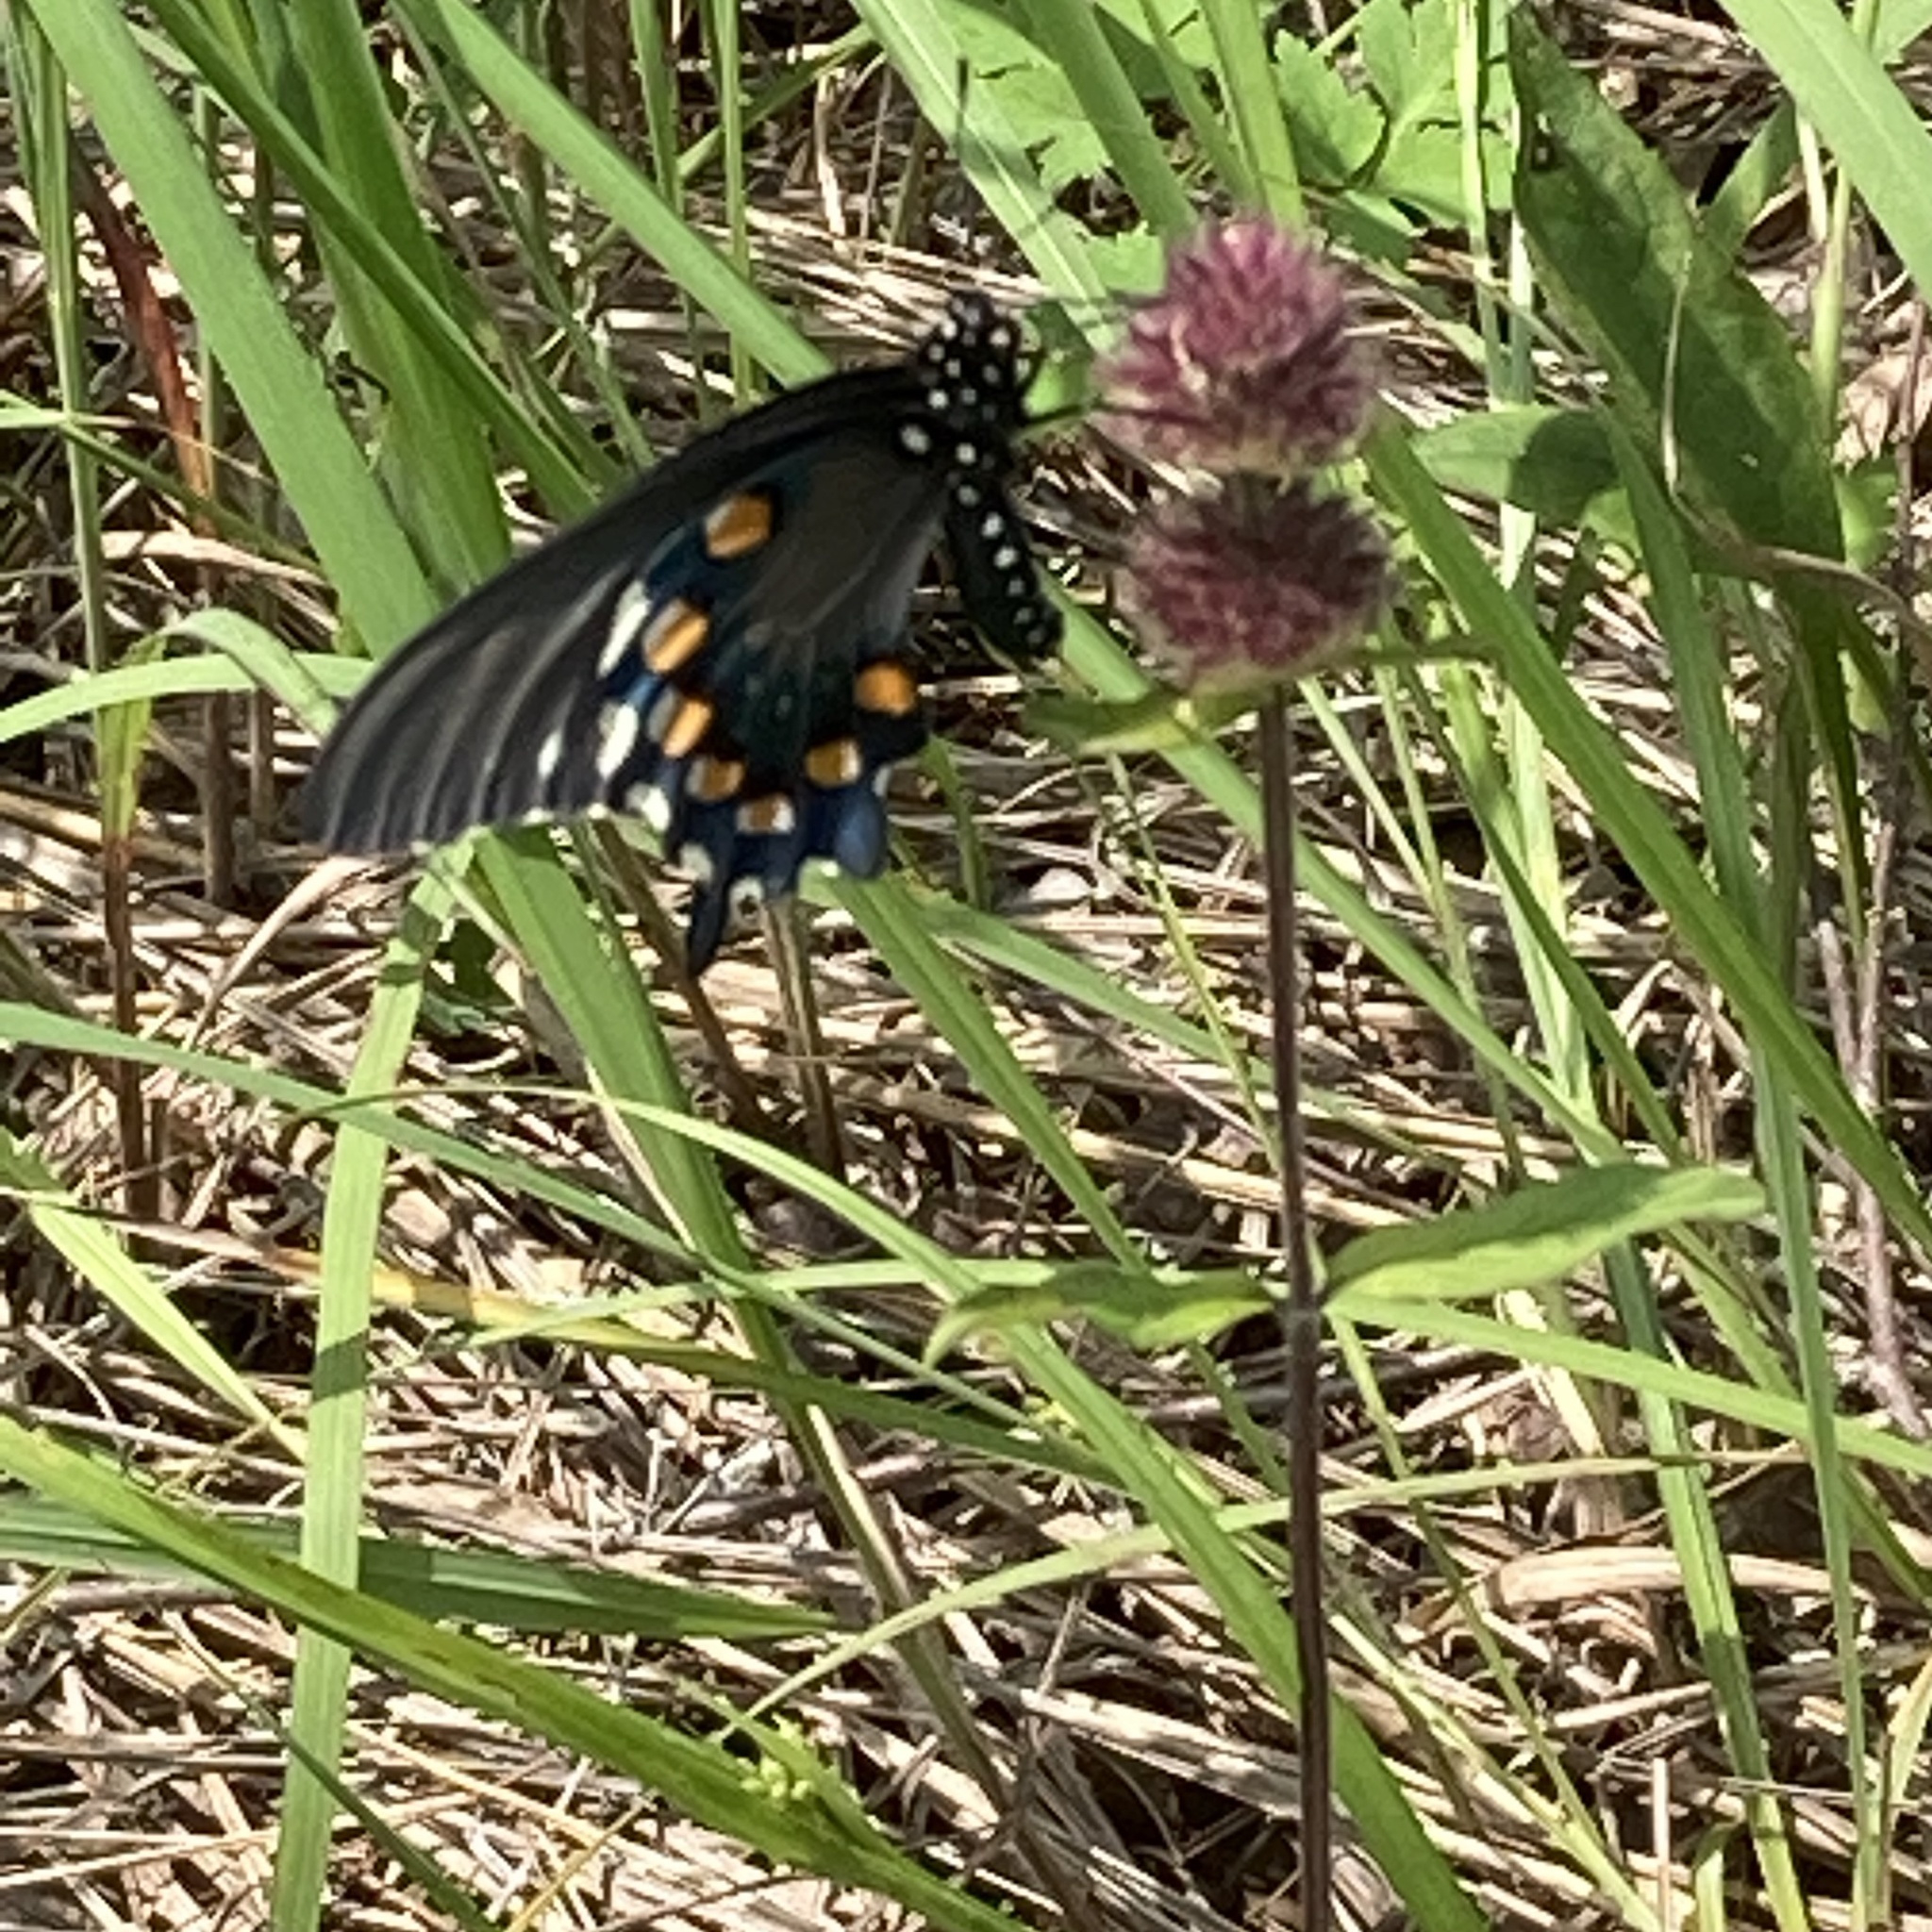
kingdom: Animalia
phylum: Arthropoda
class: Insecta
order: Lepidoptera
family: Papilionidae
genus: Battus
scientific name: Battus philenor
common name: Pipevine swallowtail
